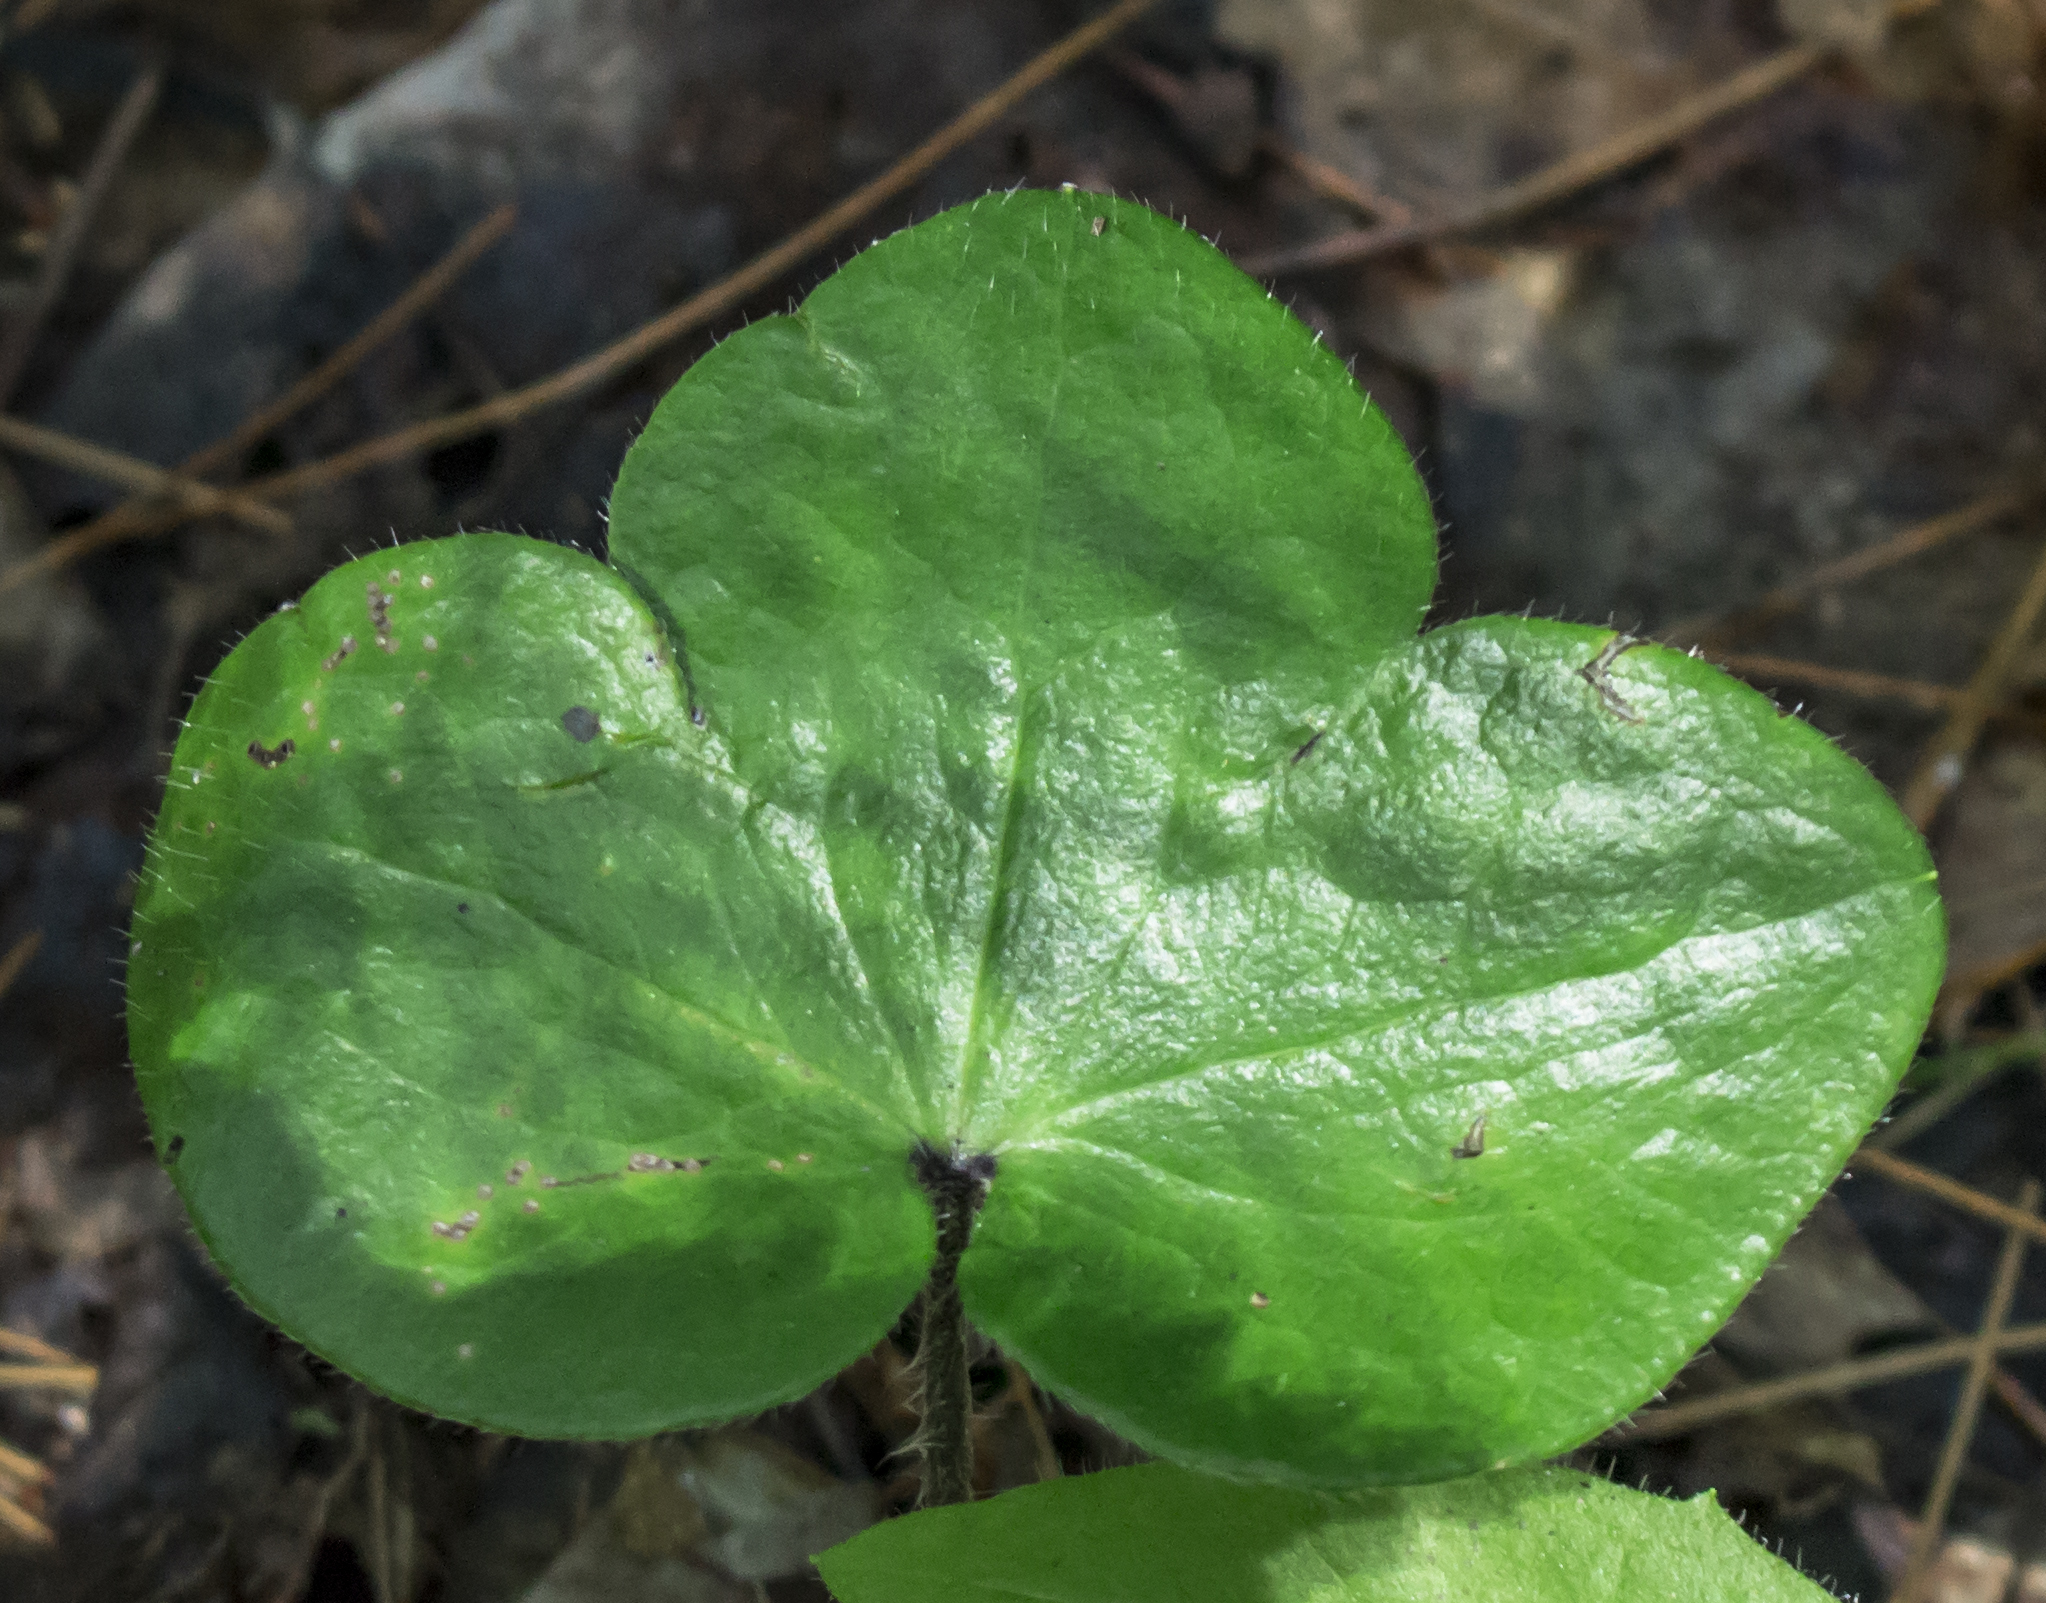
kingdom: Plantae
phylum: Tracheophyta
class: Magnoliopsida
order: Ranunculales
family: Ranunculaceae
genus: Hepatica
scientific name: Hepatica americana
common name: American hepatica
